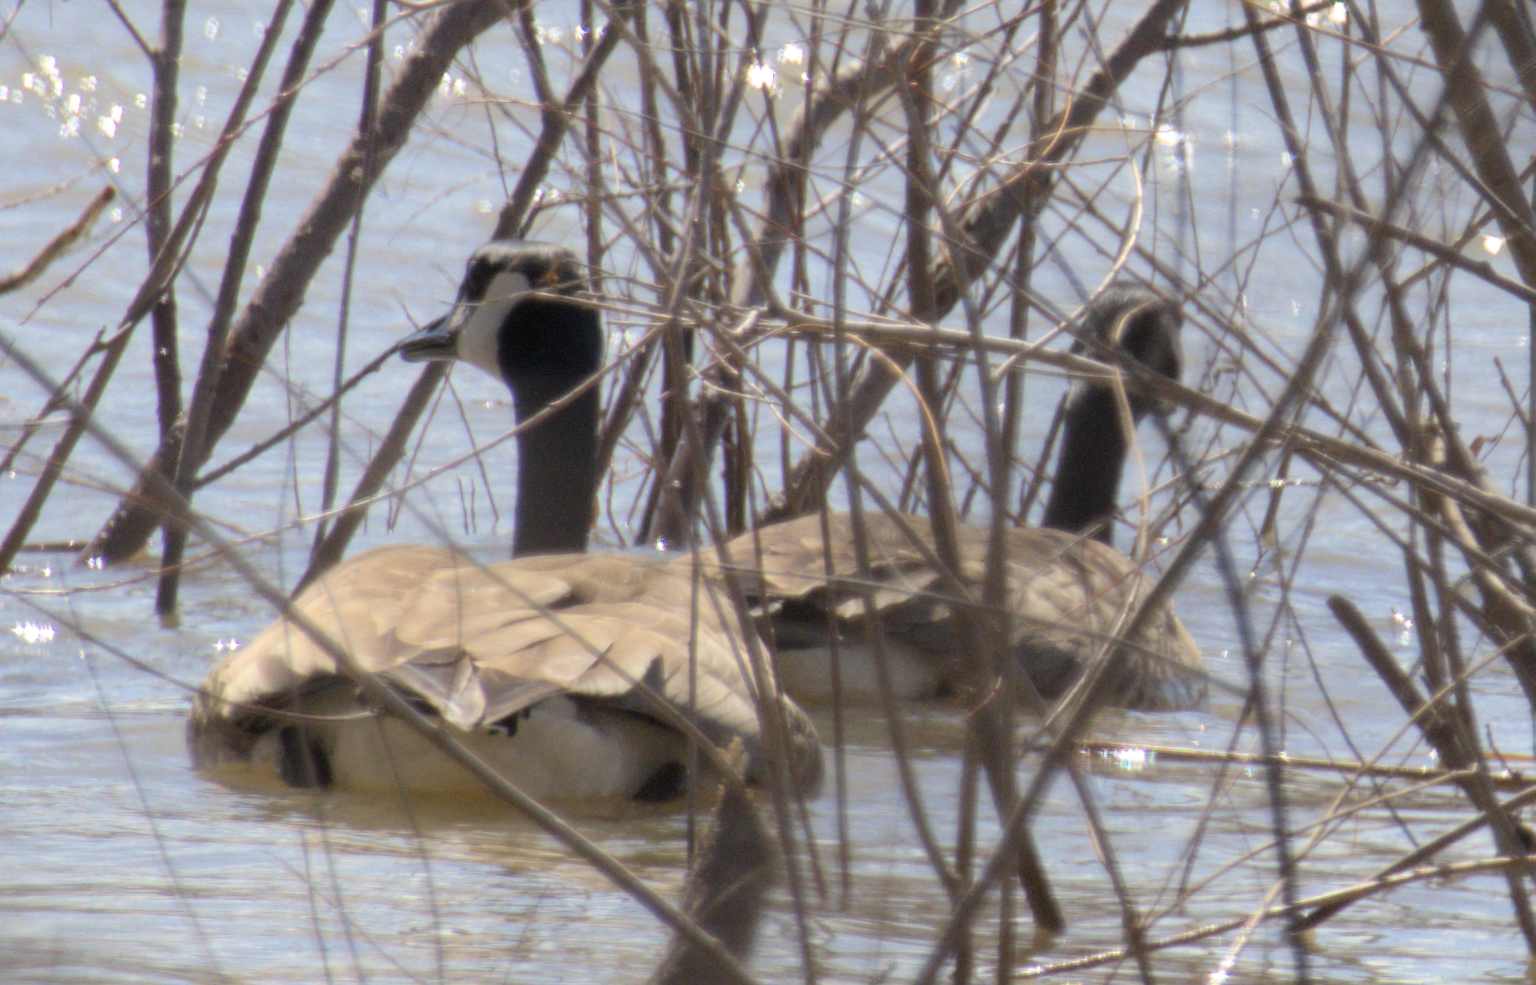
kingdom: Animalia
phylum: Chordata
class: Aves
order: Anseriformes
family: Anatidae
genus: Branta
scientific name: Branta canadensis
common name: Canada goose
